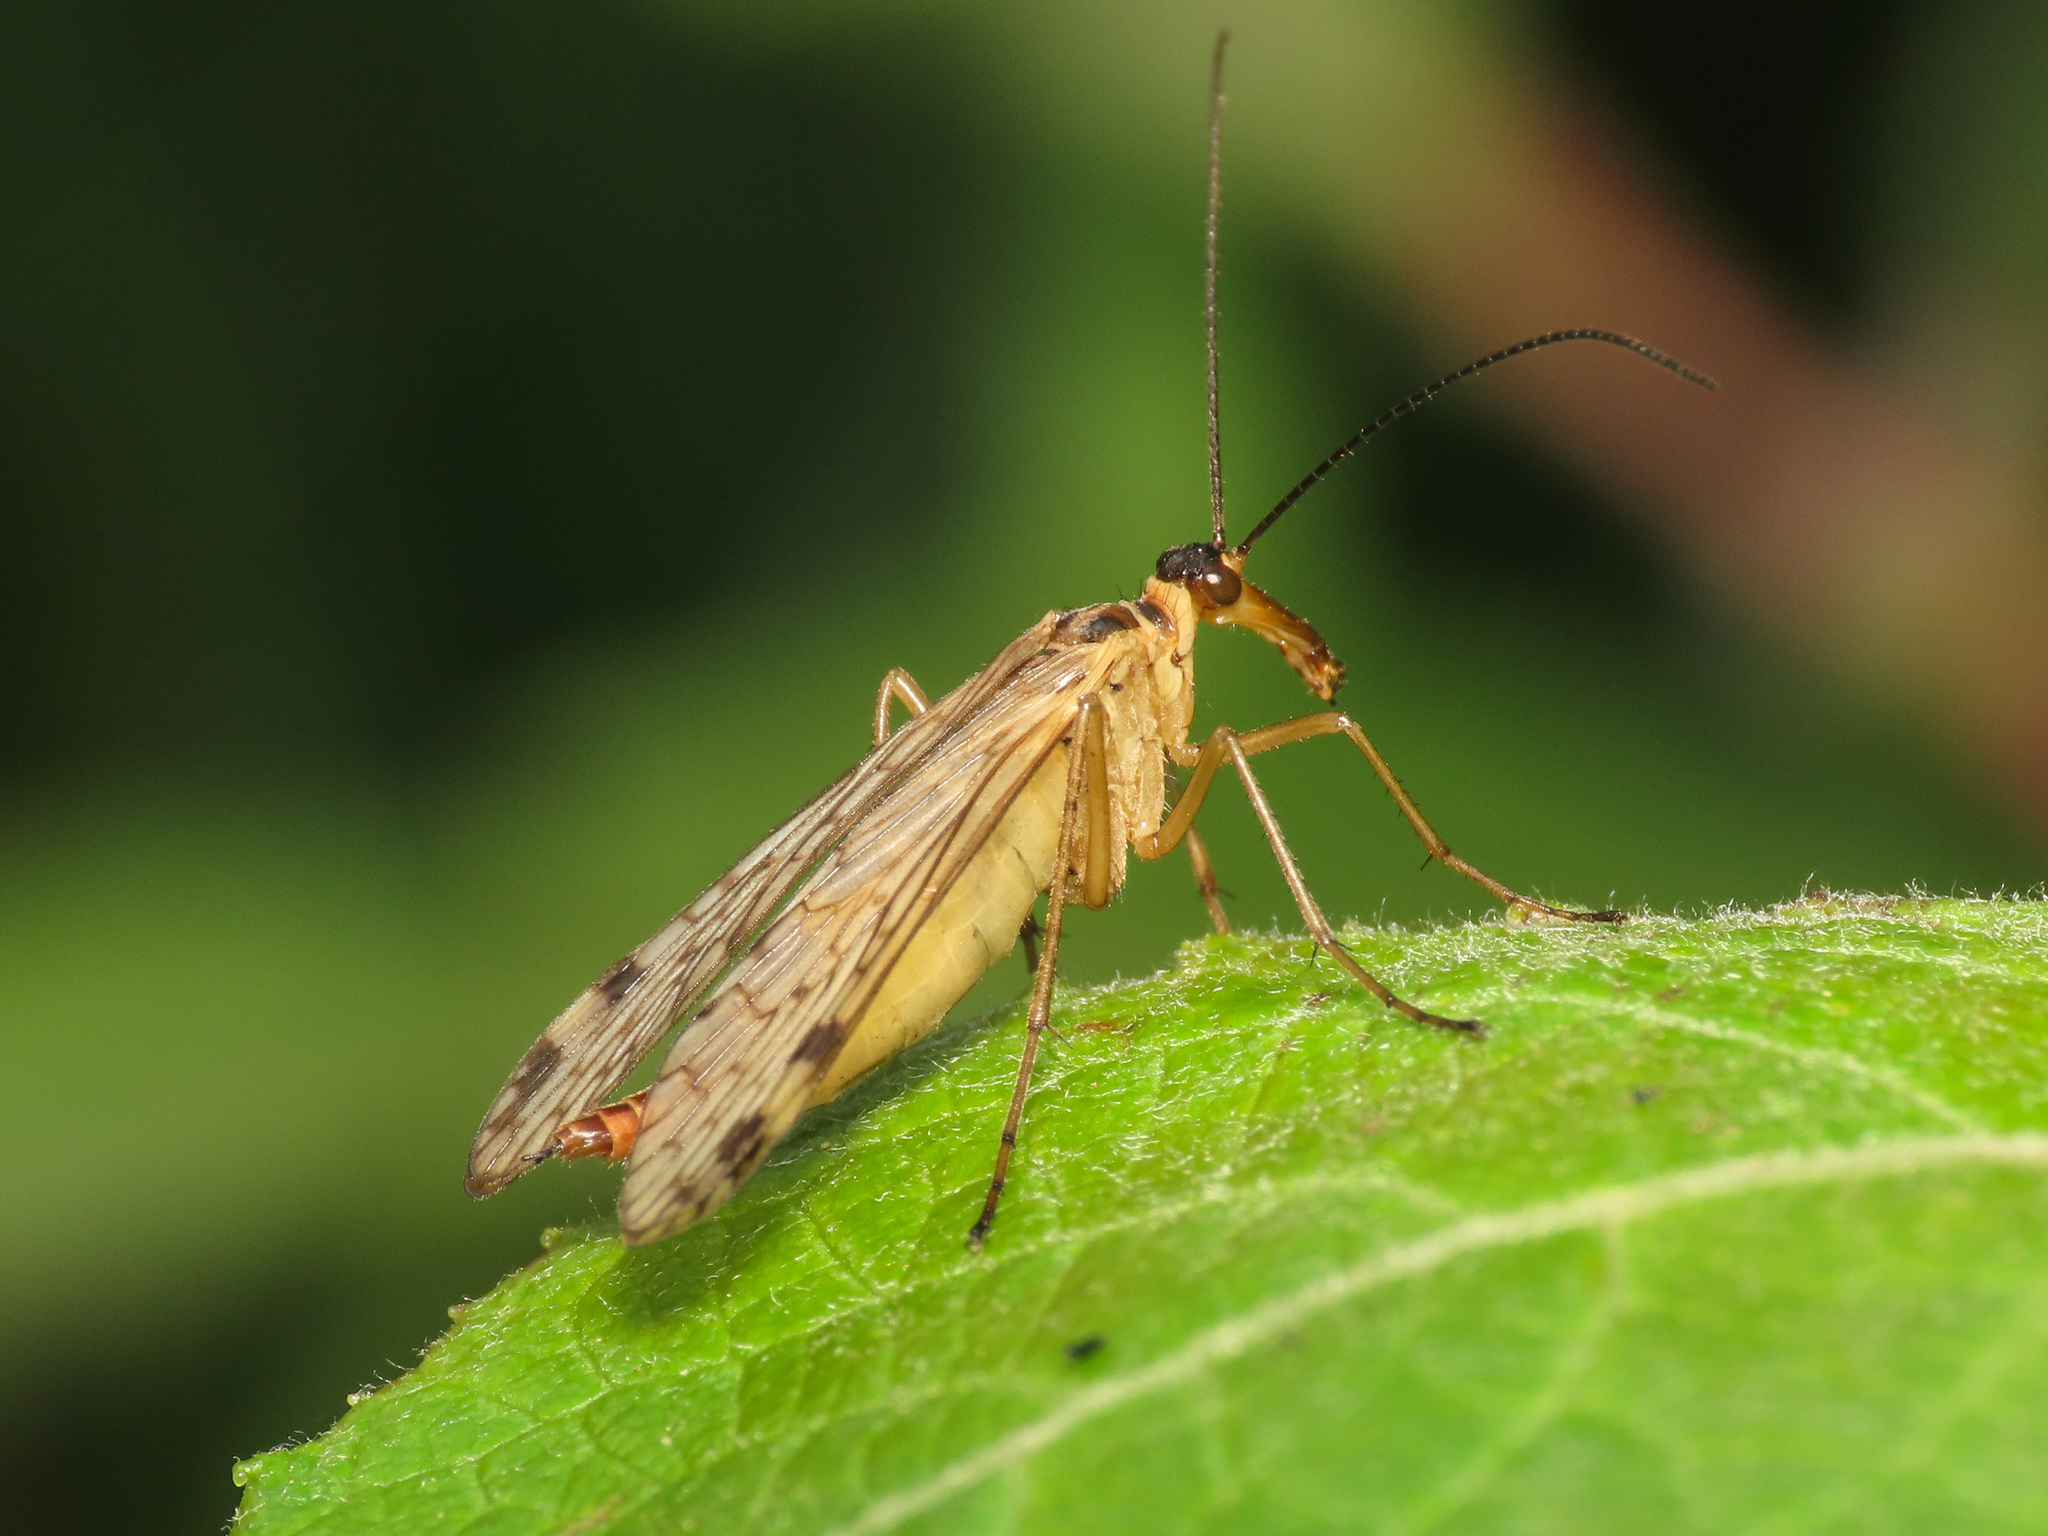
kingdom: Animalia
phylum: Arthropoda
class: Insecta
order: Mecoptera
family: Panorpidae
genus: Panorpa
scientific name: Panorpa alpina
